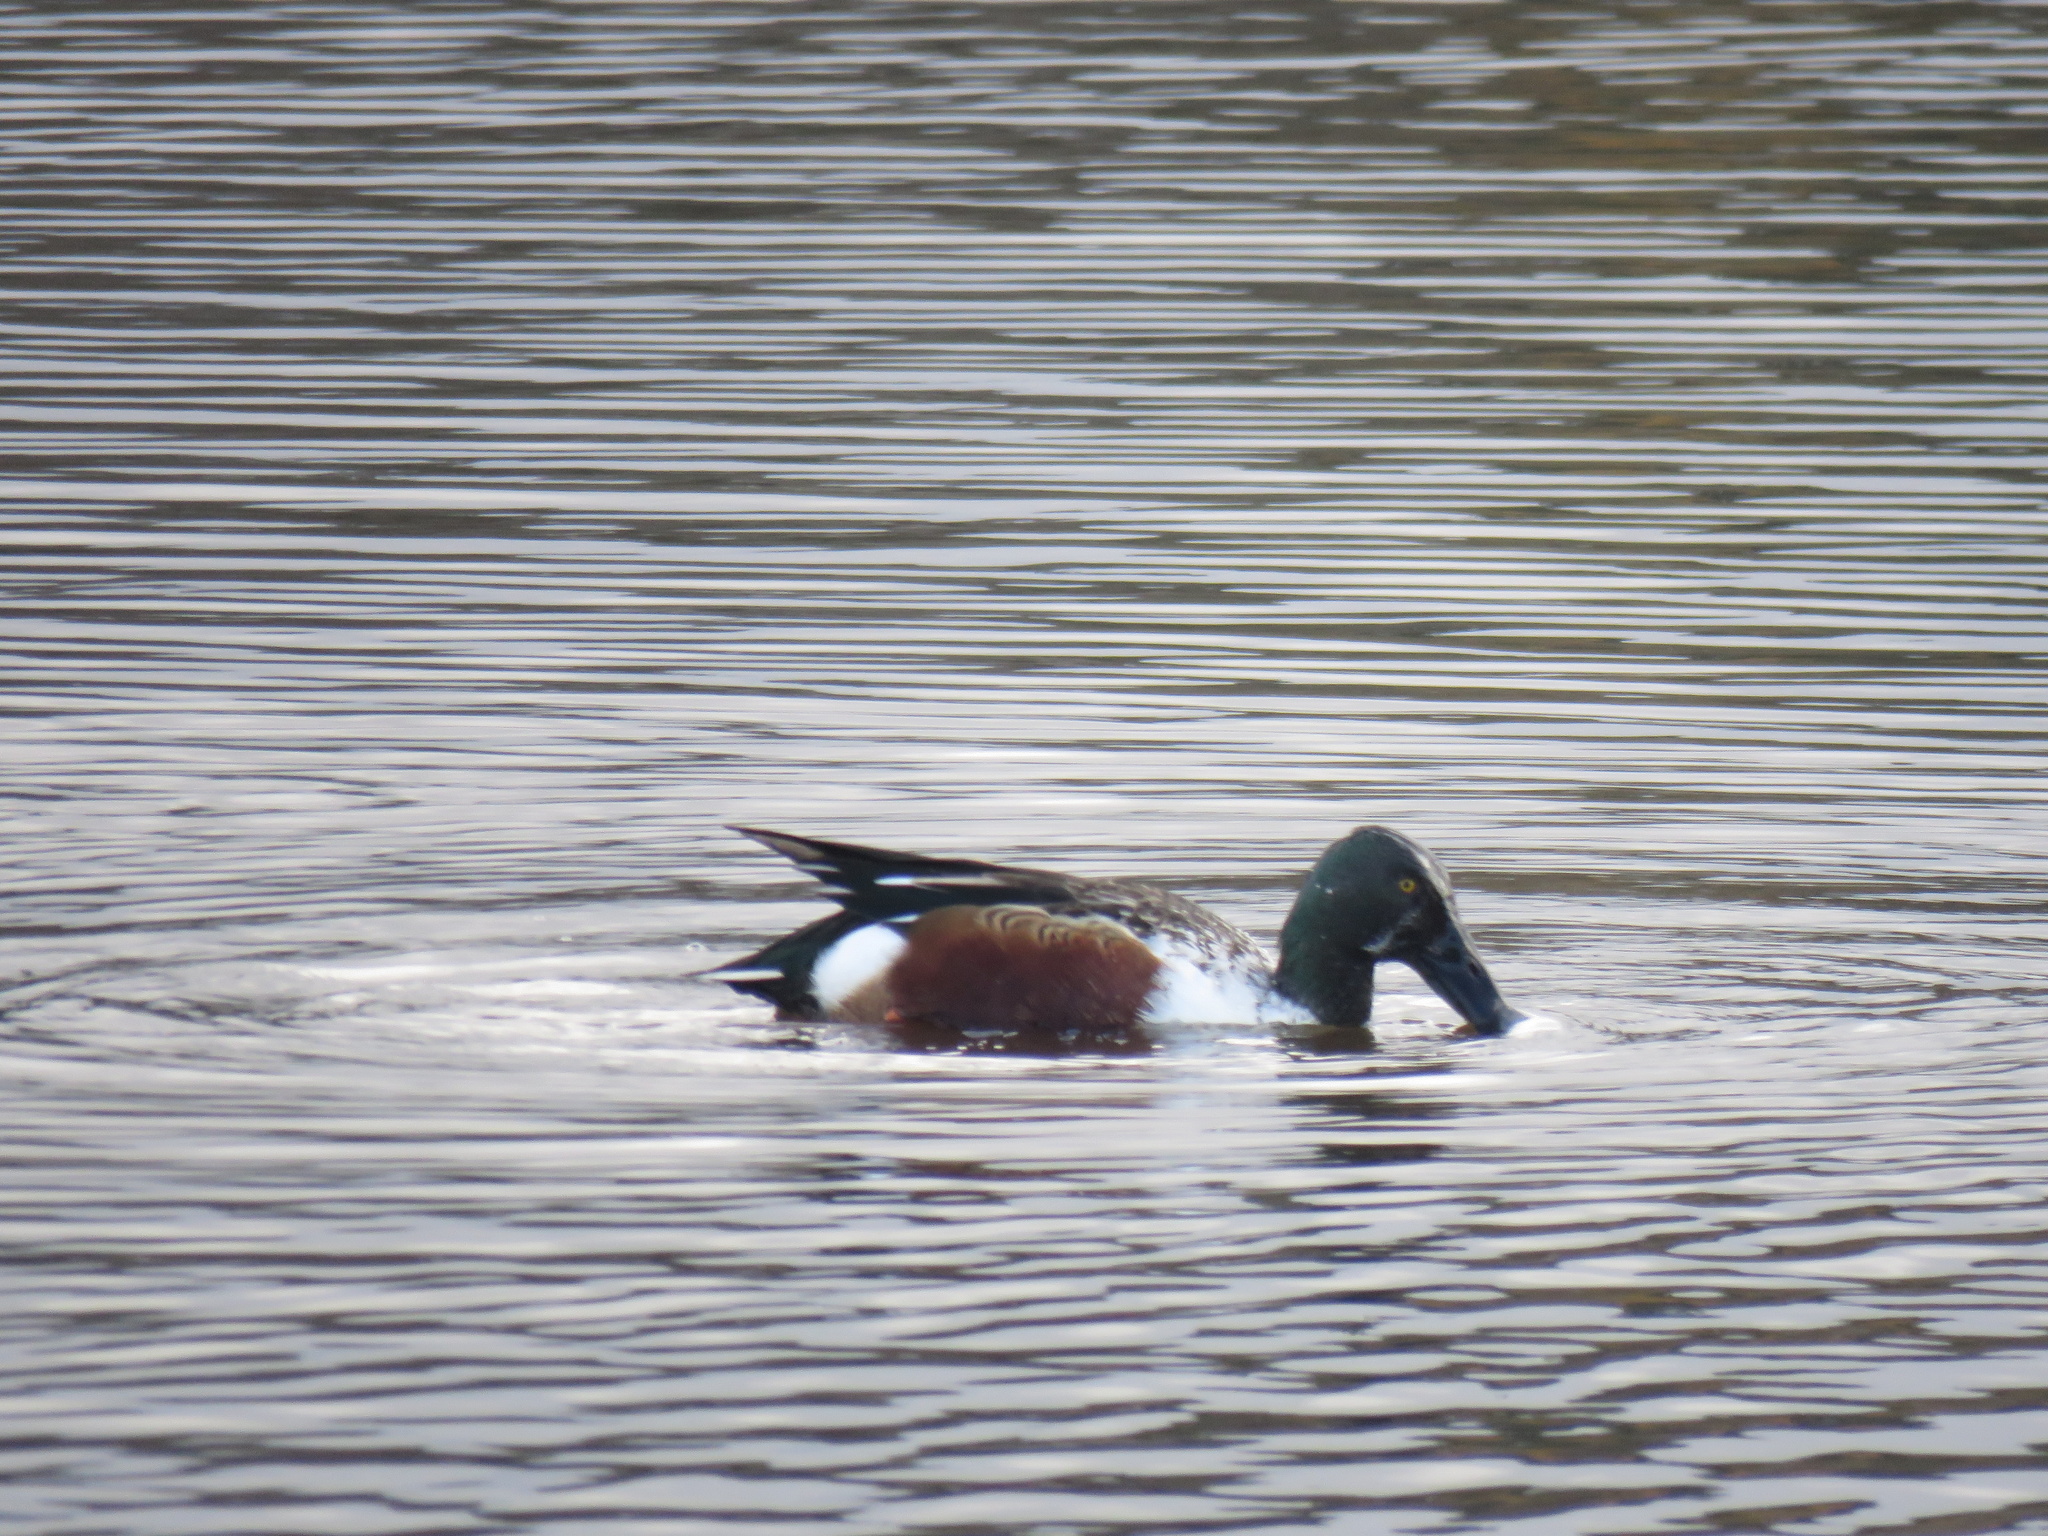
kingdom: Animalia
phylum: Chordata
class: Aves
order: Anseriformes
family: Anatidae
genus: Spatula
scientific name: Spatula clypeata
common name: Northern shoveler
